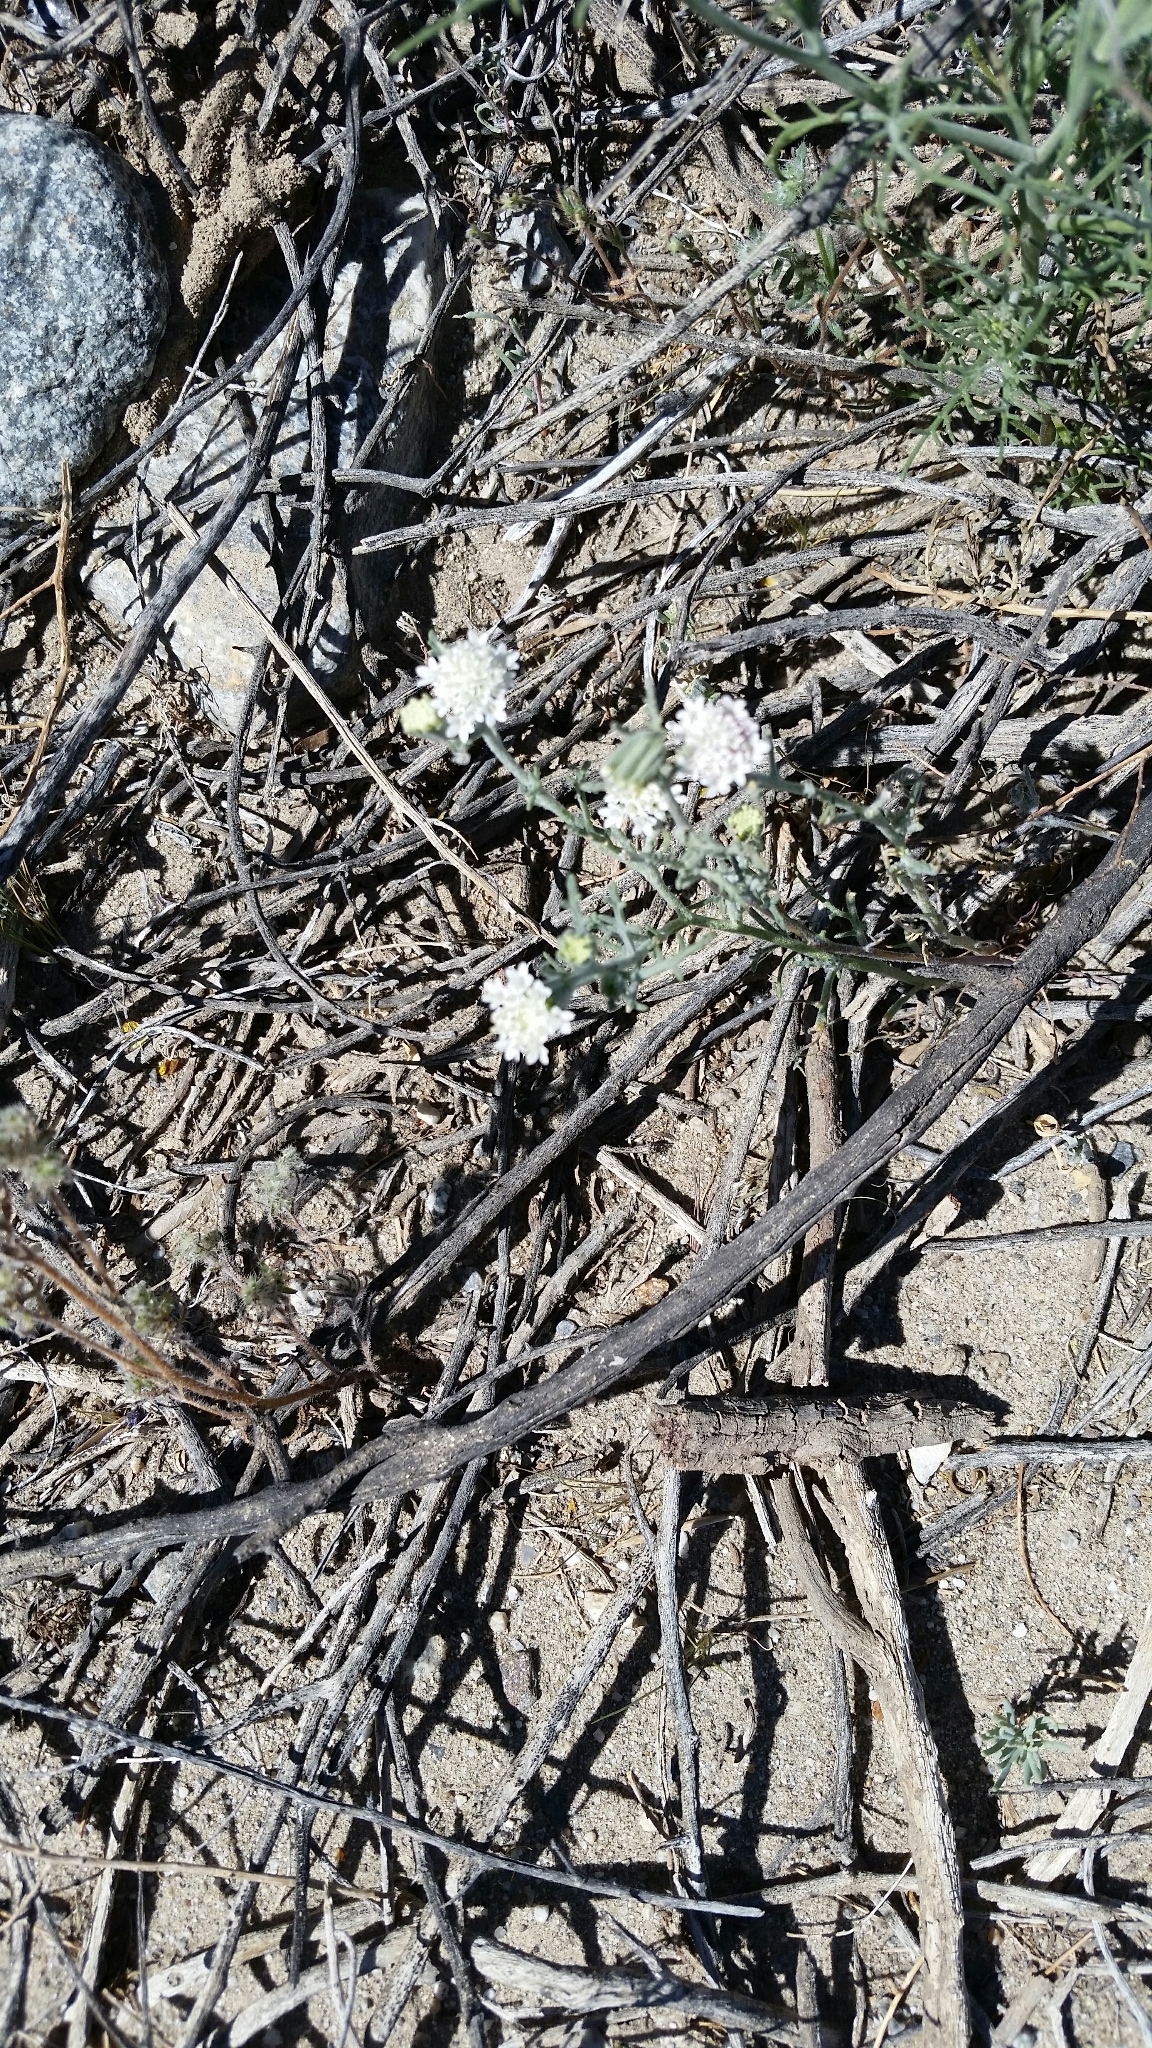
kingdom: Plantae
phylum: Tracheophyta
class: Magnoliopsida
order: Asterales
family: Asteraceae
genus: Chaenactis
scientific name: Chaenactis stevioides
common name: Desert pincushion
